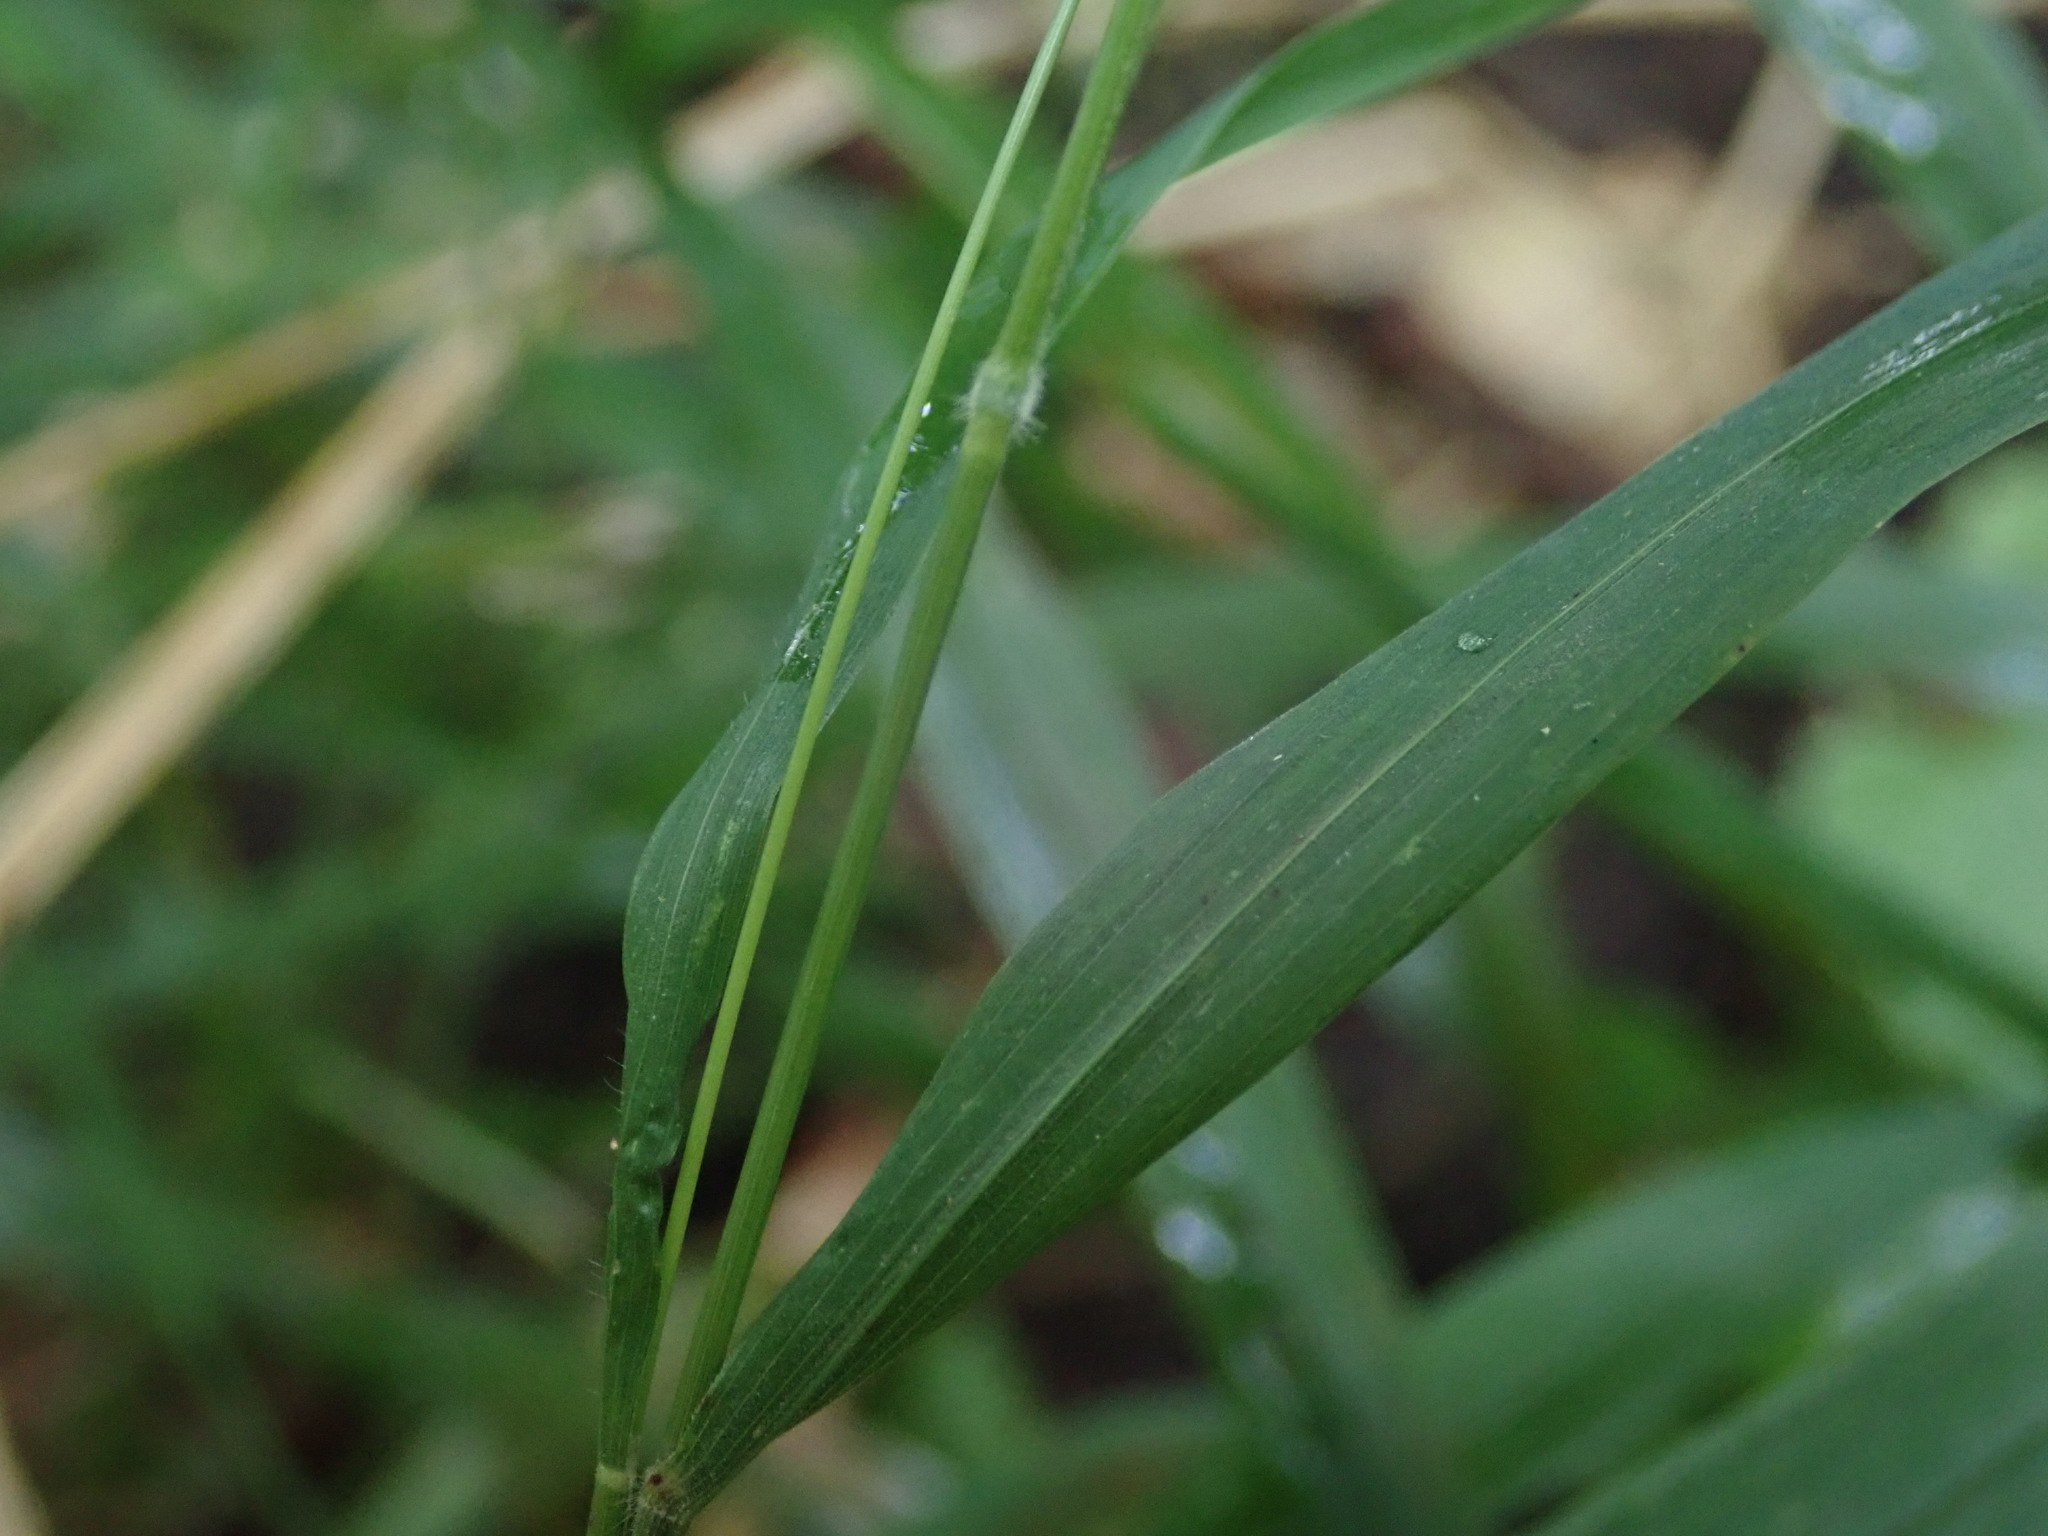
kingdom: Plantae
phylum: Tracheophyta
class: Liliopsida
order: Poales
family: Poaceae
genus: Brachypodium
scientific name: Brachypodium sylvaticum
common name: False-brome
